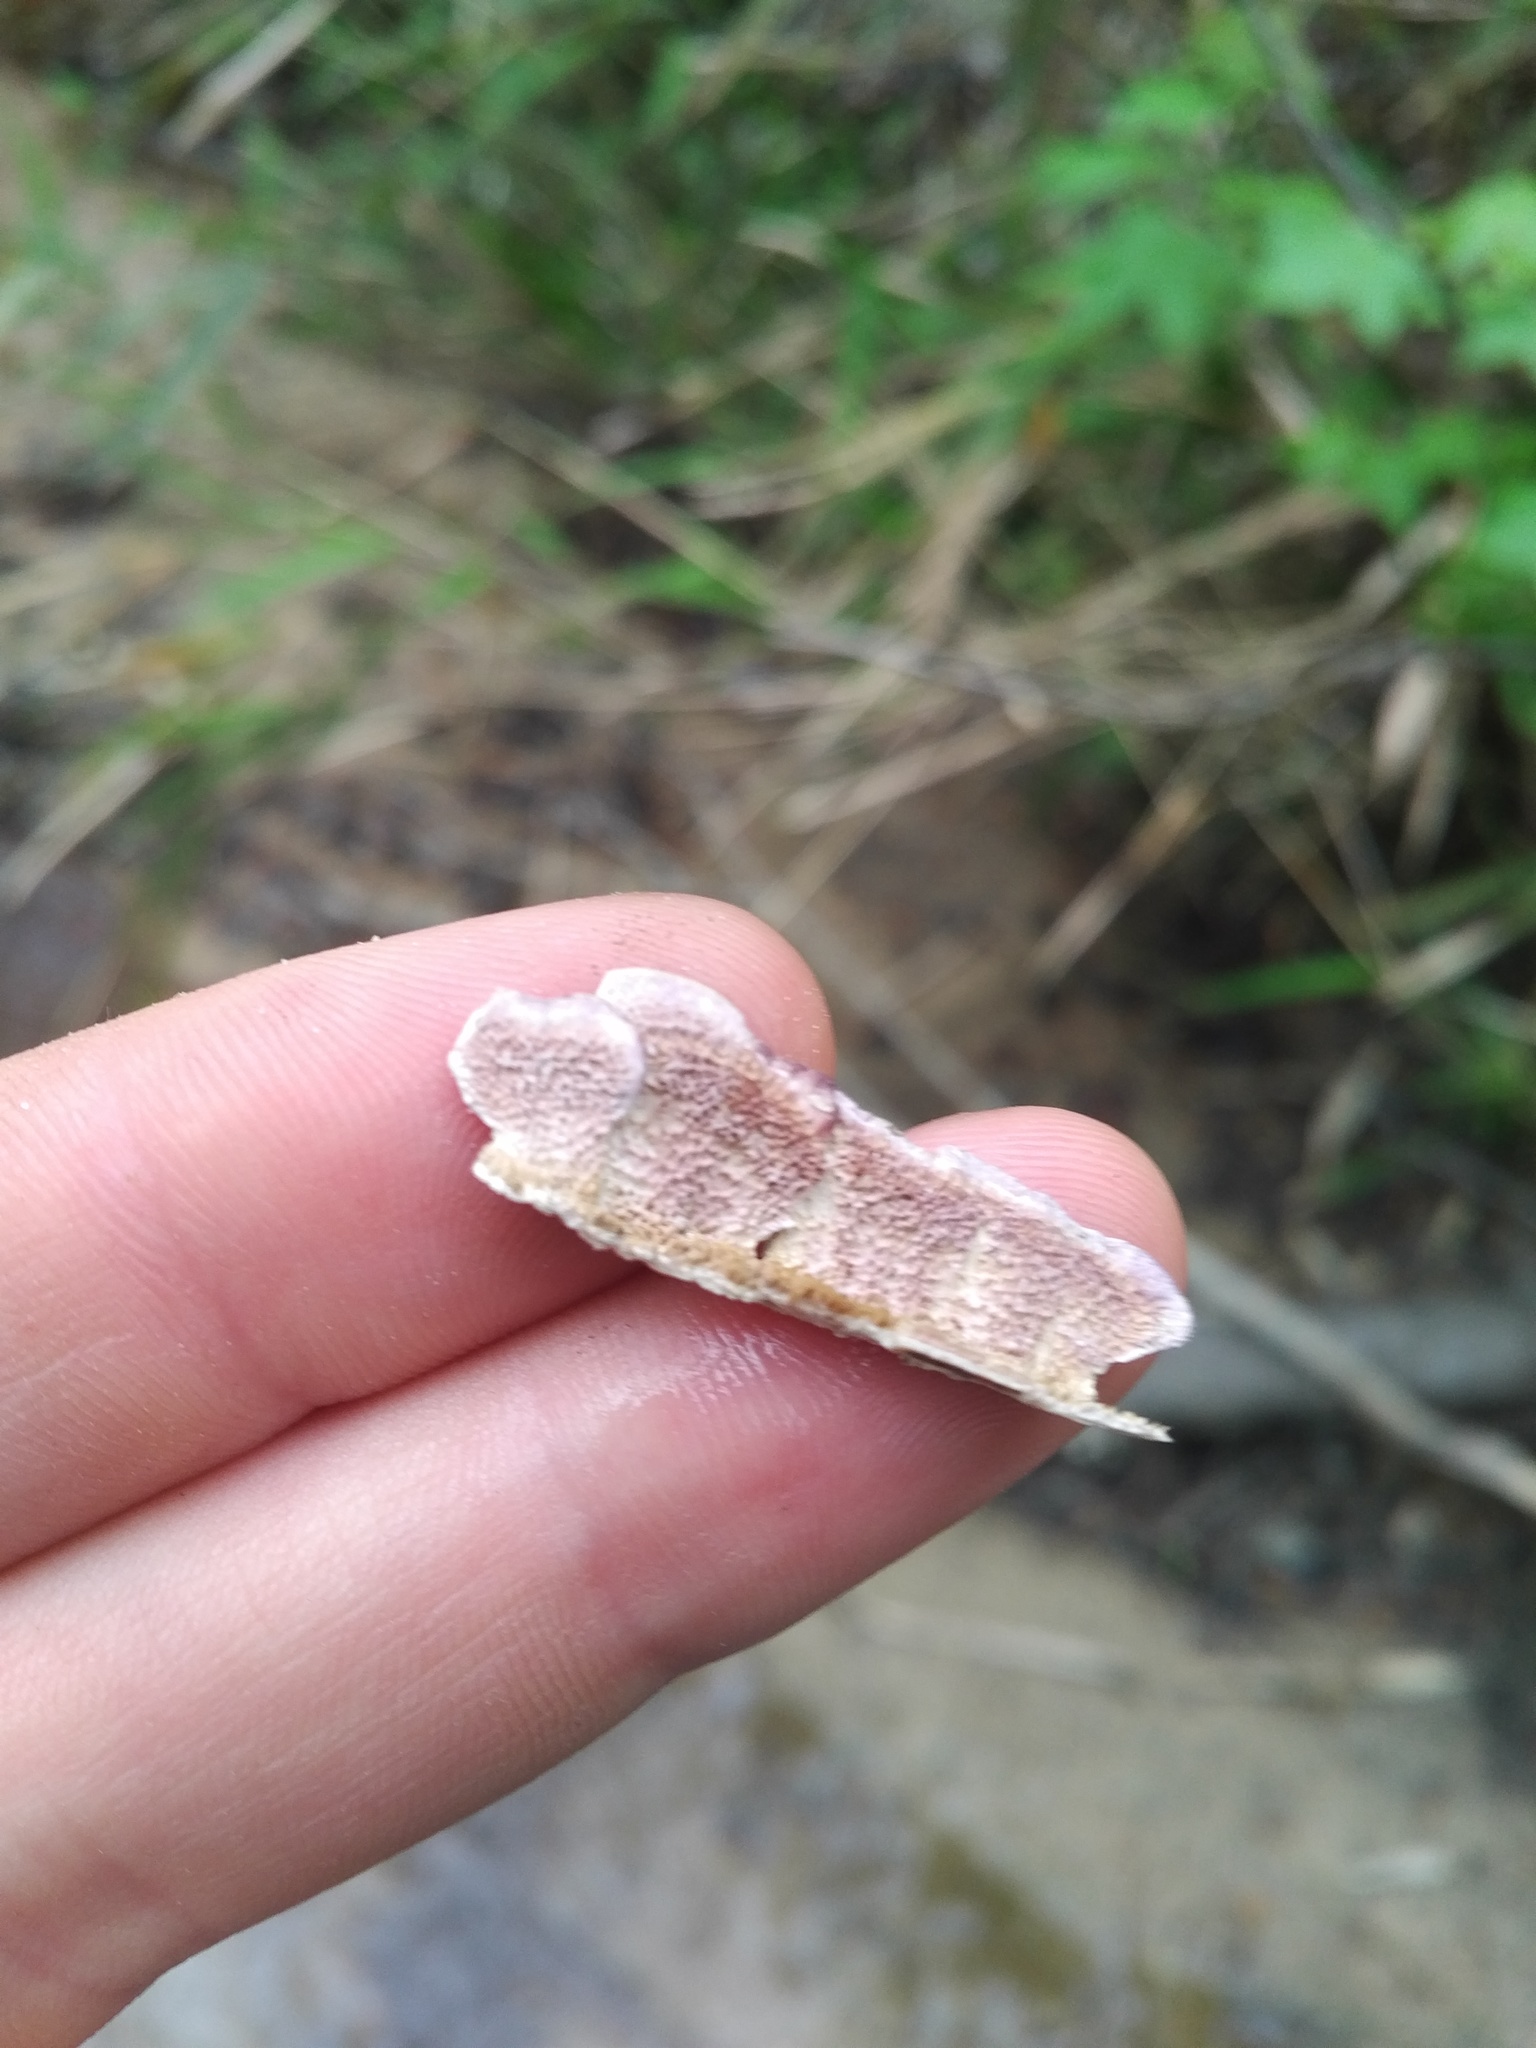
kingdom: Fungi
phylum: Basidiomycota
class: Agaricomycetes
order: Hymenochaetales
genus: Trichaptum
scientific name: Trichaptum biforme
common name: Violet-toothed polypore
